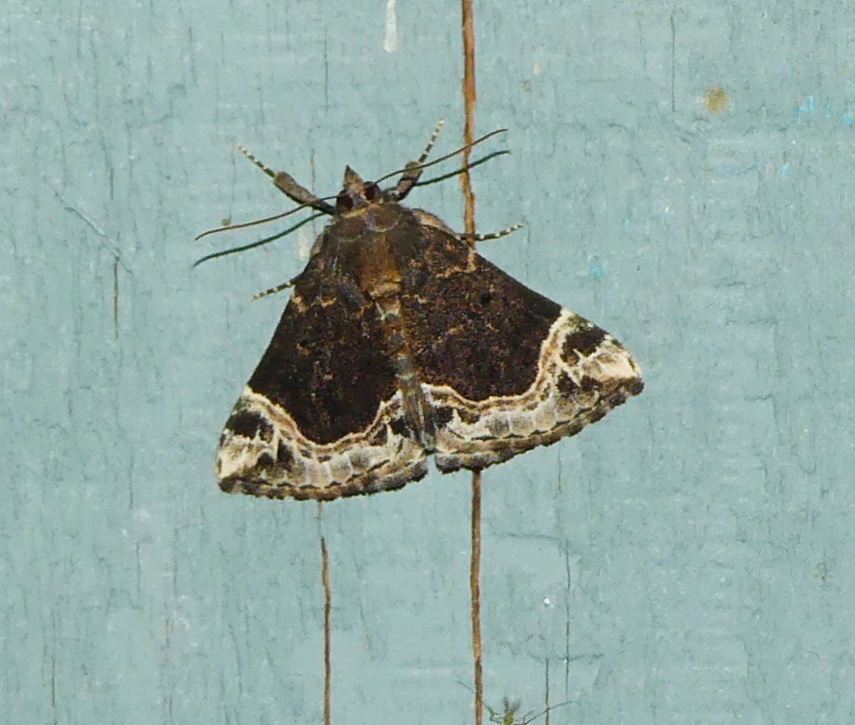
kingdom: Animalia
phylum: Arthropoda
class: Insecta
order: Lepidoptera
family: Erebidae
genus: Hypena
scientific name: Hypena abalienalis
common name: White-lined snout
